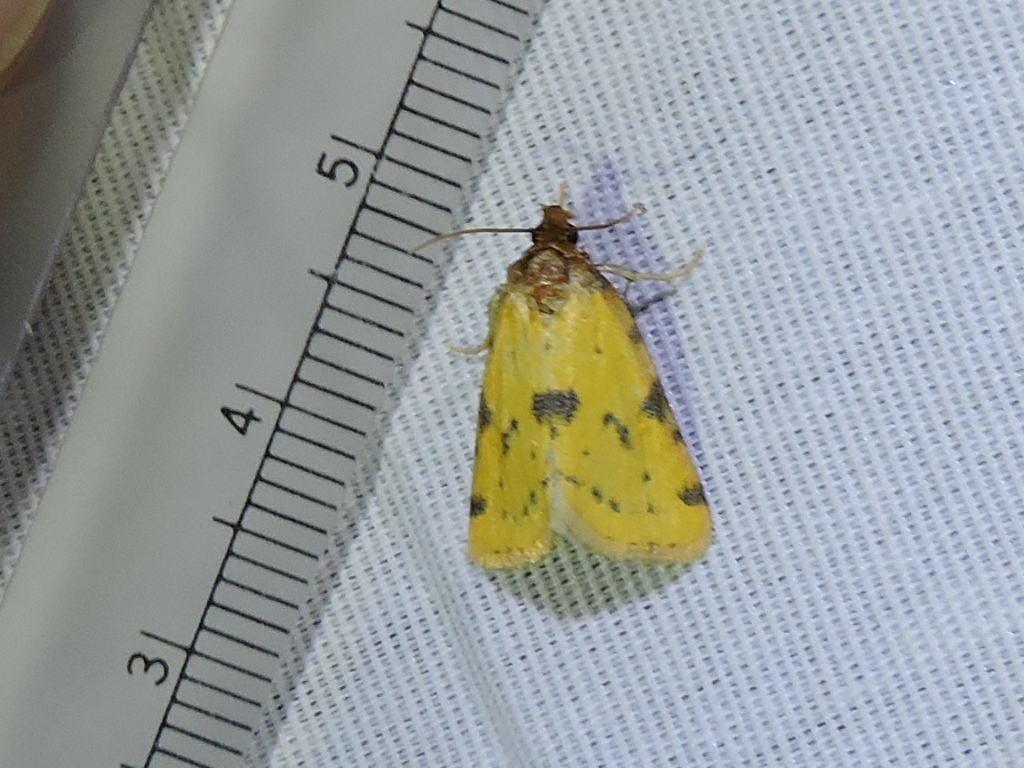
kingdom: Animalia
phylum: Arthropoda
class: Insecta
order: Lepidoptera
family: Noctuidae
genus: Azenia
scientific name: Azenia obtusa
